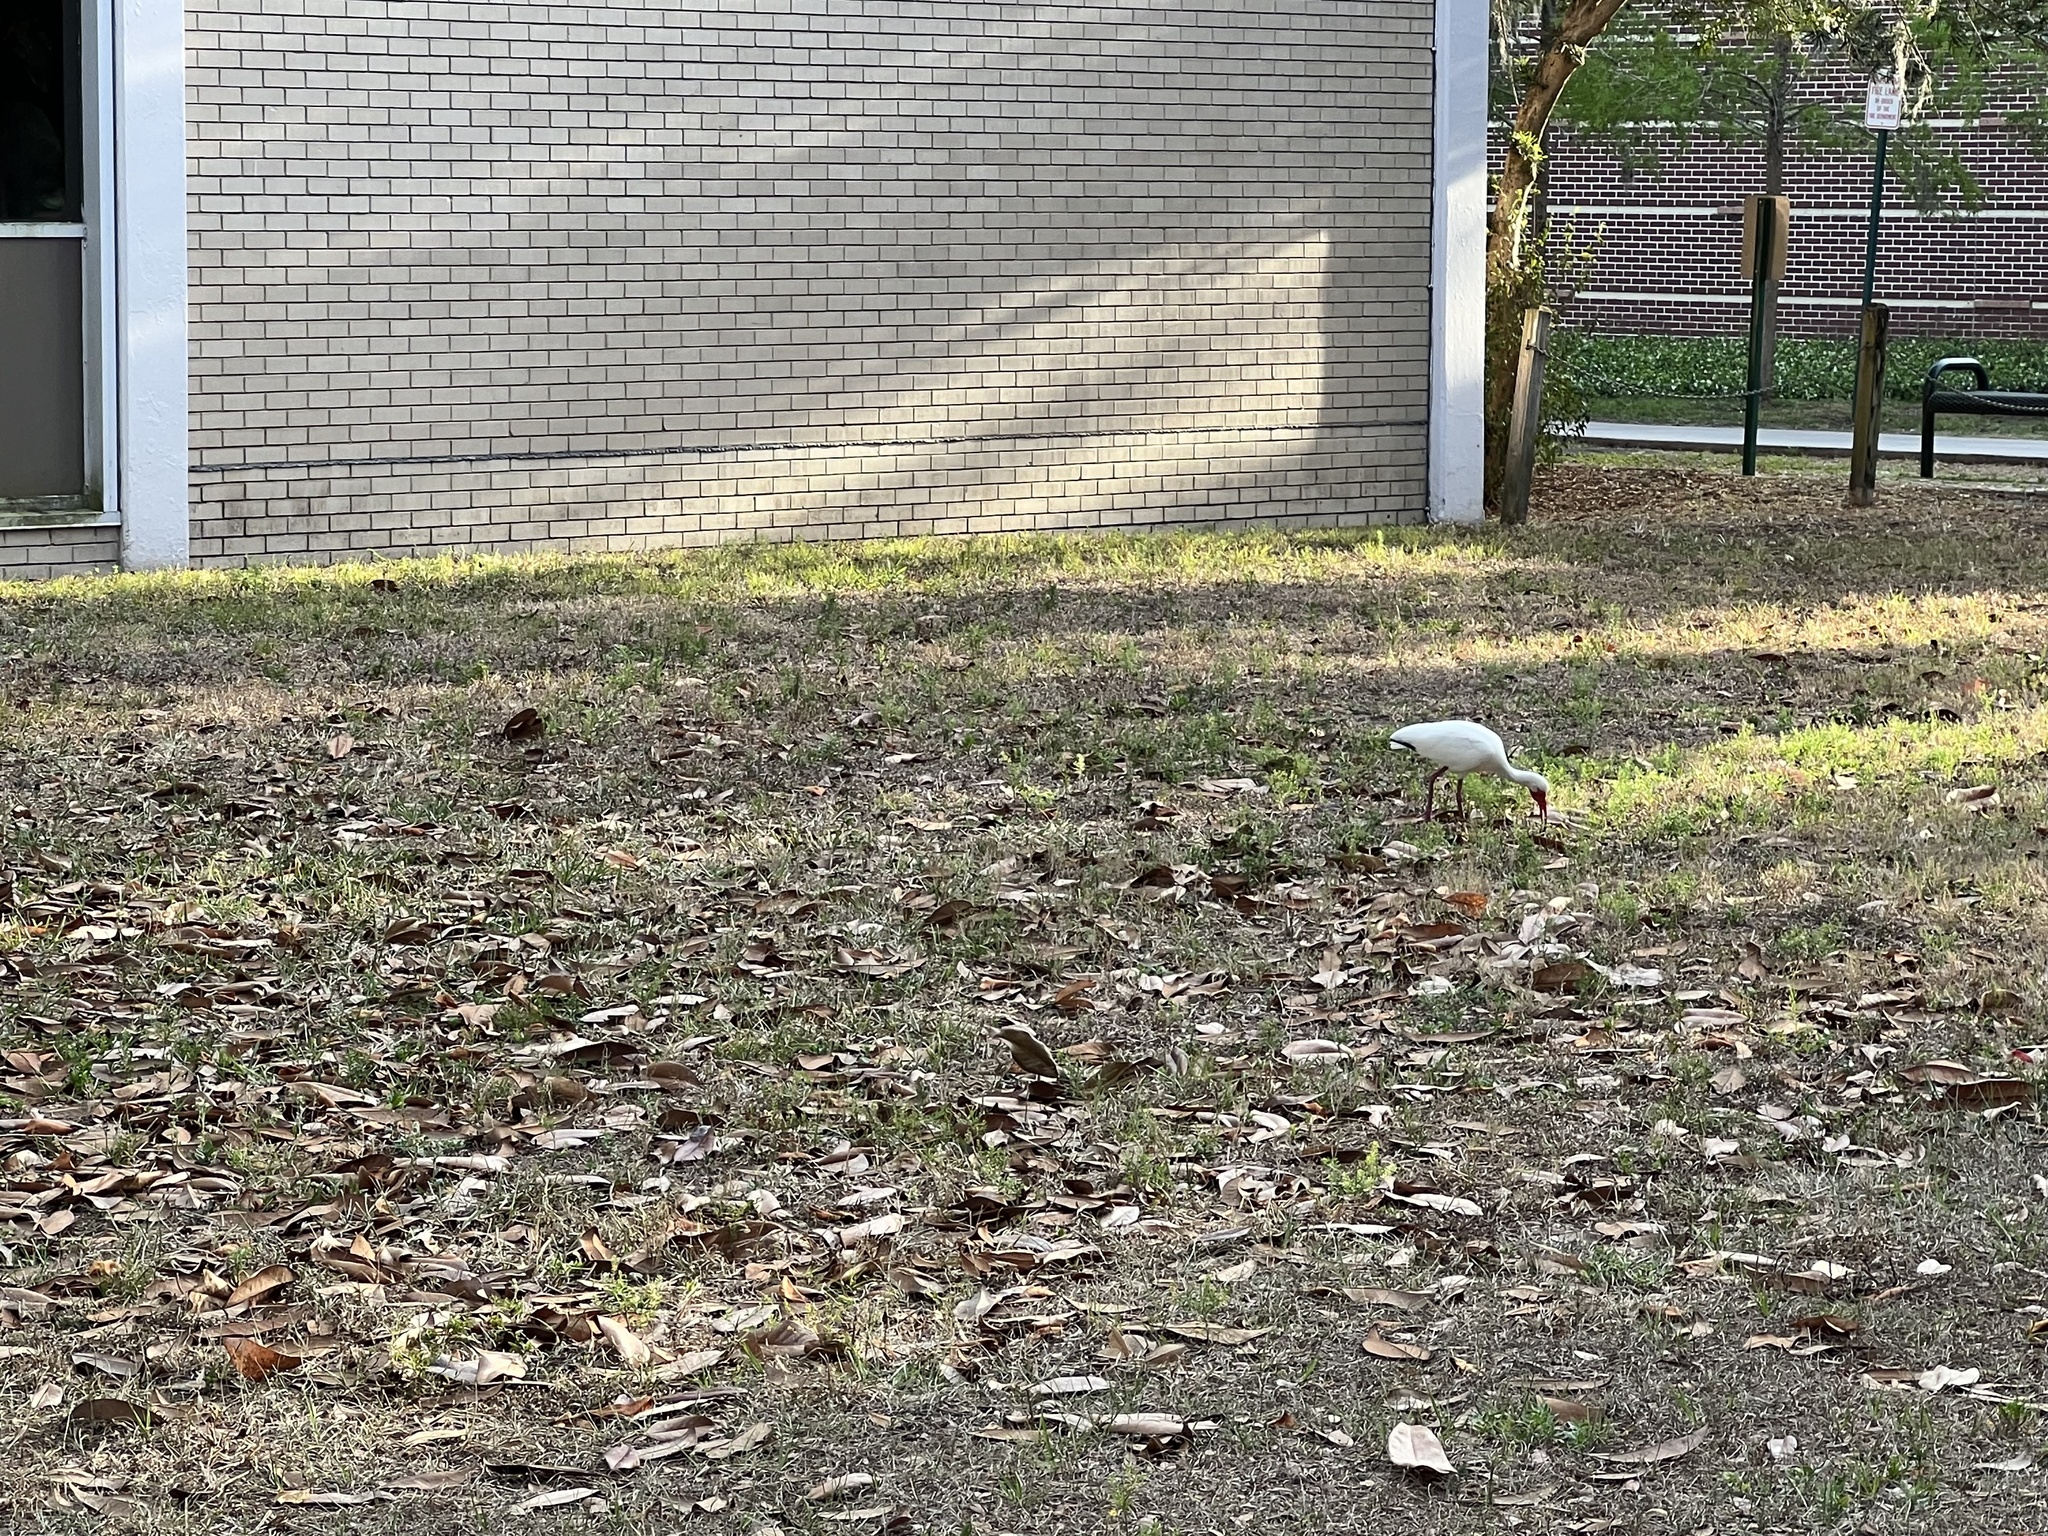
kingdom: Animalia
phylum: Chordata
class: Aves
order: Pelecaniformes
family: Threskiornithidae
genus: Eudocimus
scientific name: Eudocimus albus
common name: White ibis
